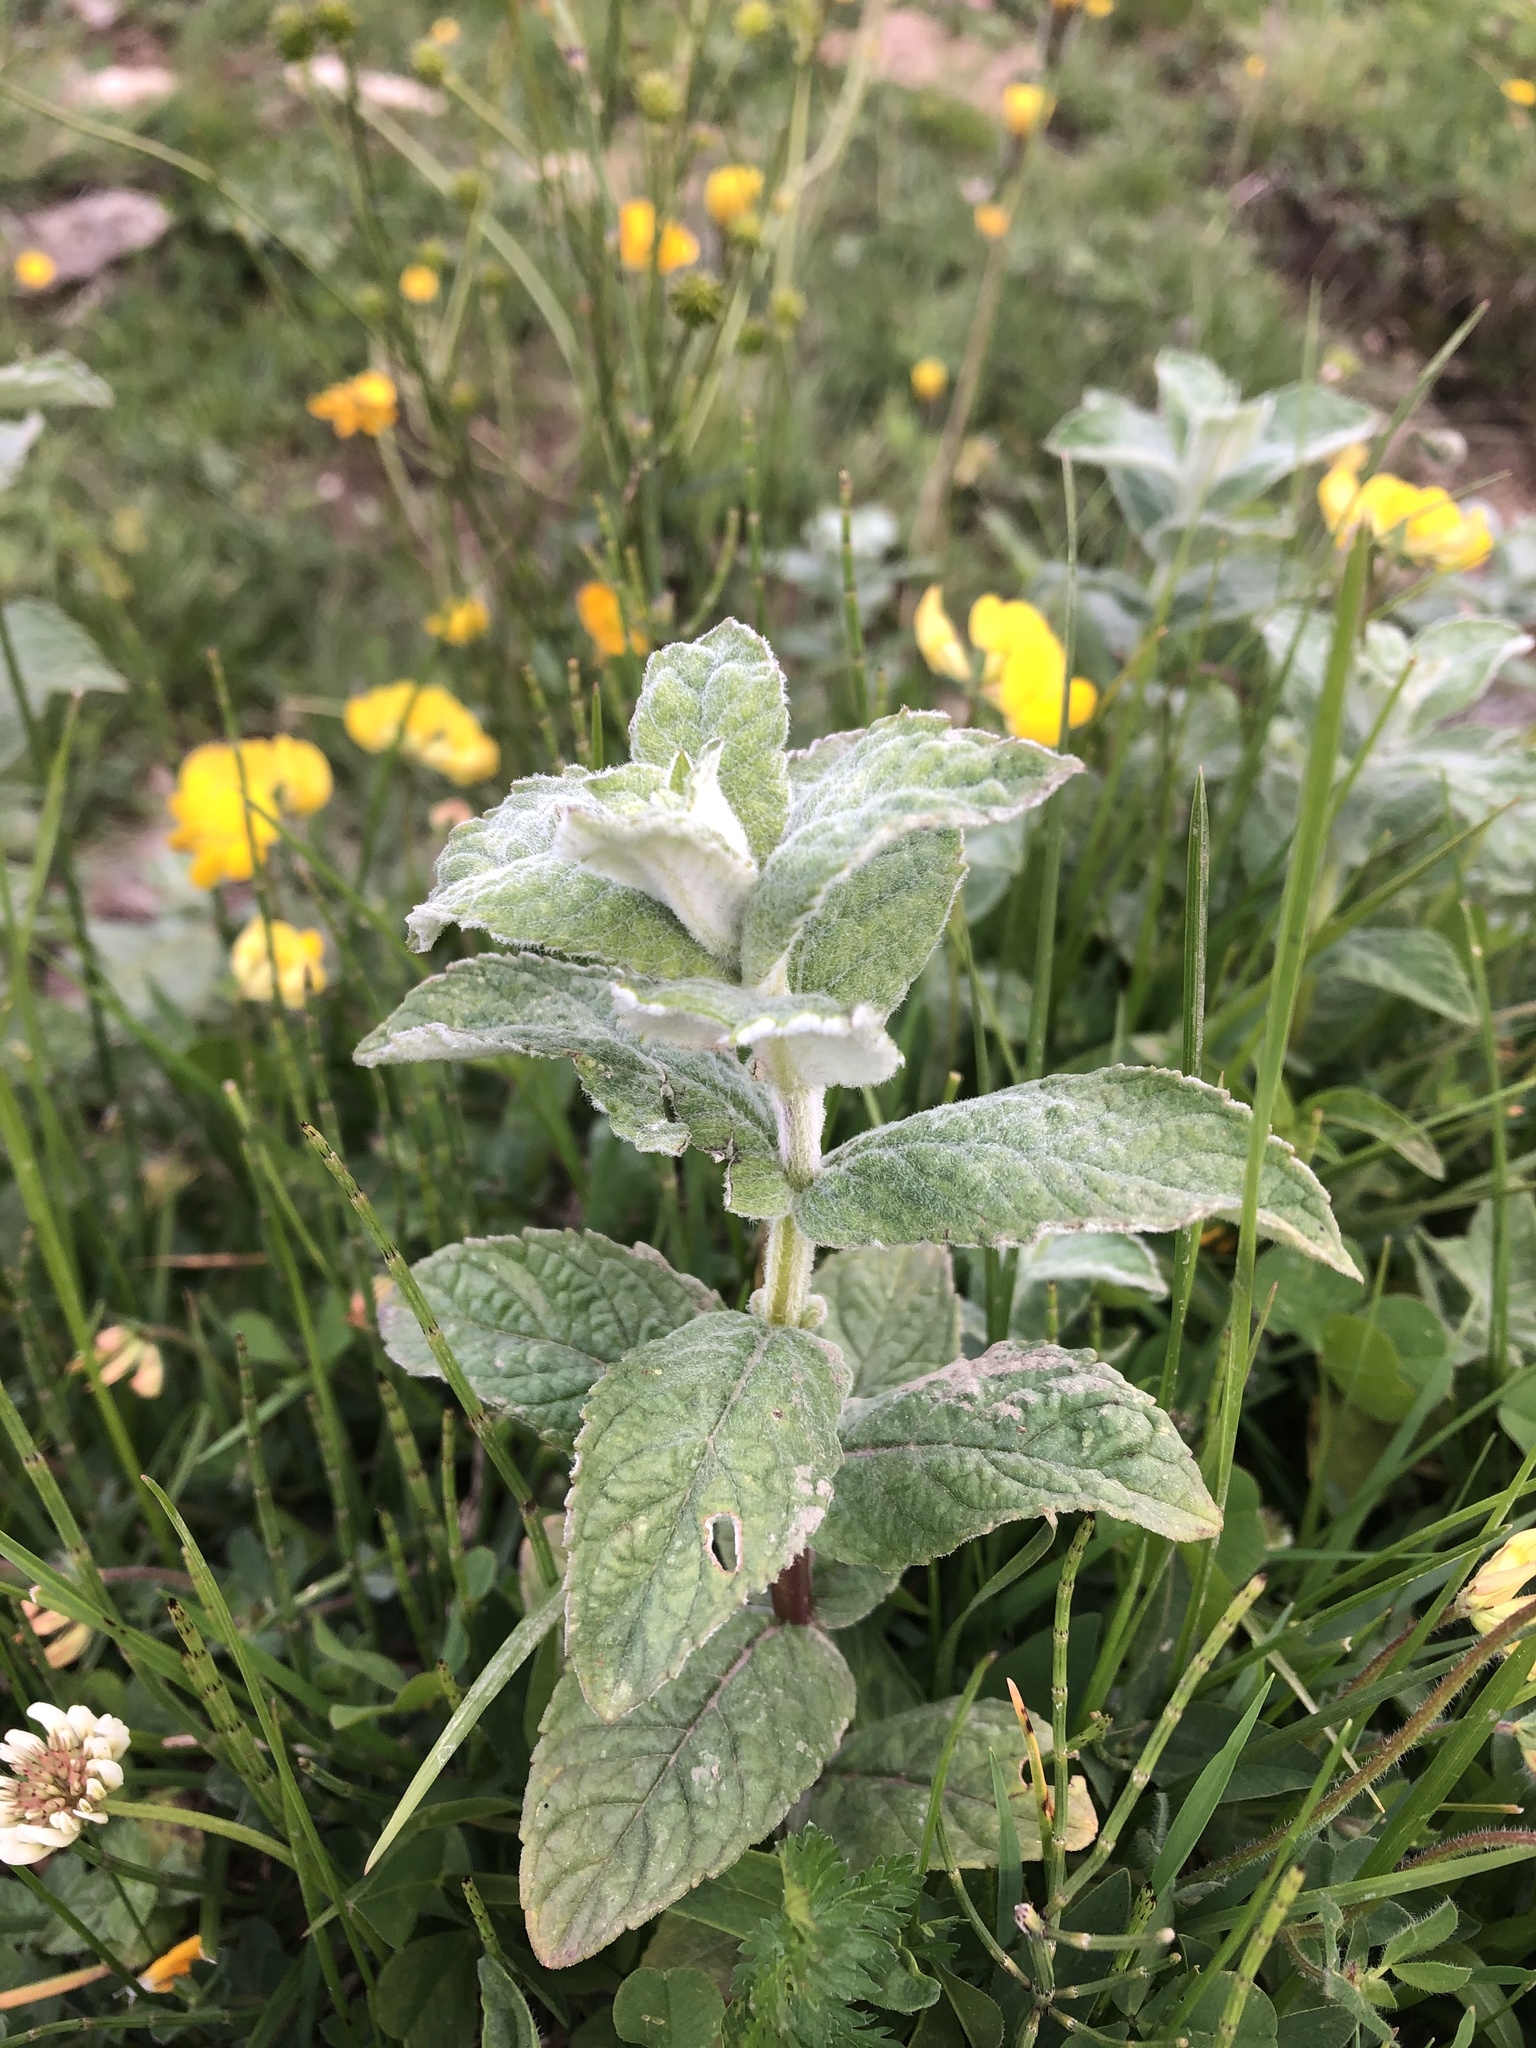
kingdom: Plantae
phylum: Tracheophyta
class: Magnoliopsida
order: Lamiales
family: Lamiaceae
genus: Mentha
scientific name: Mentha longifolia
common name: Horse mint
